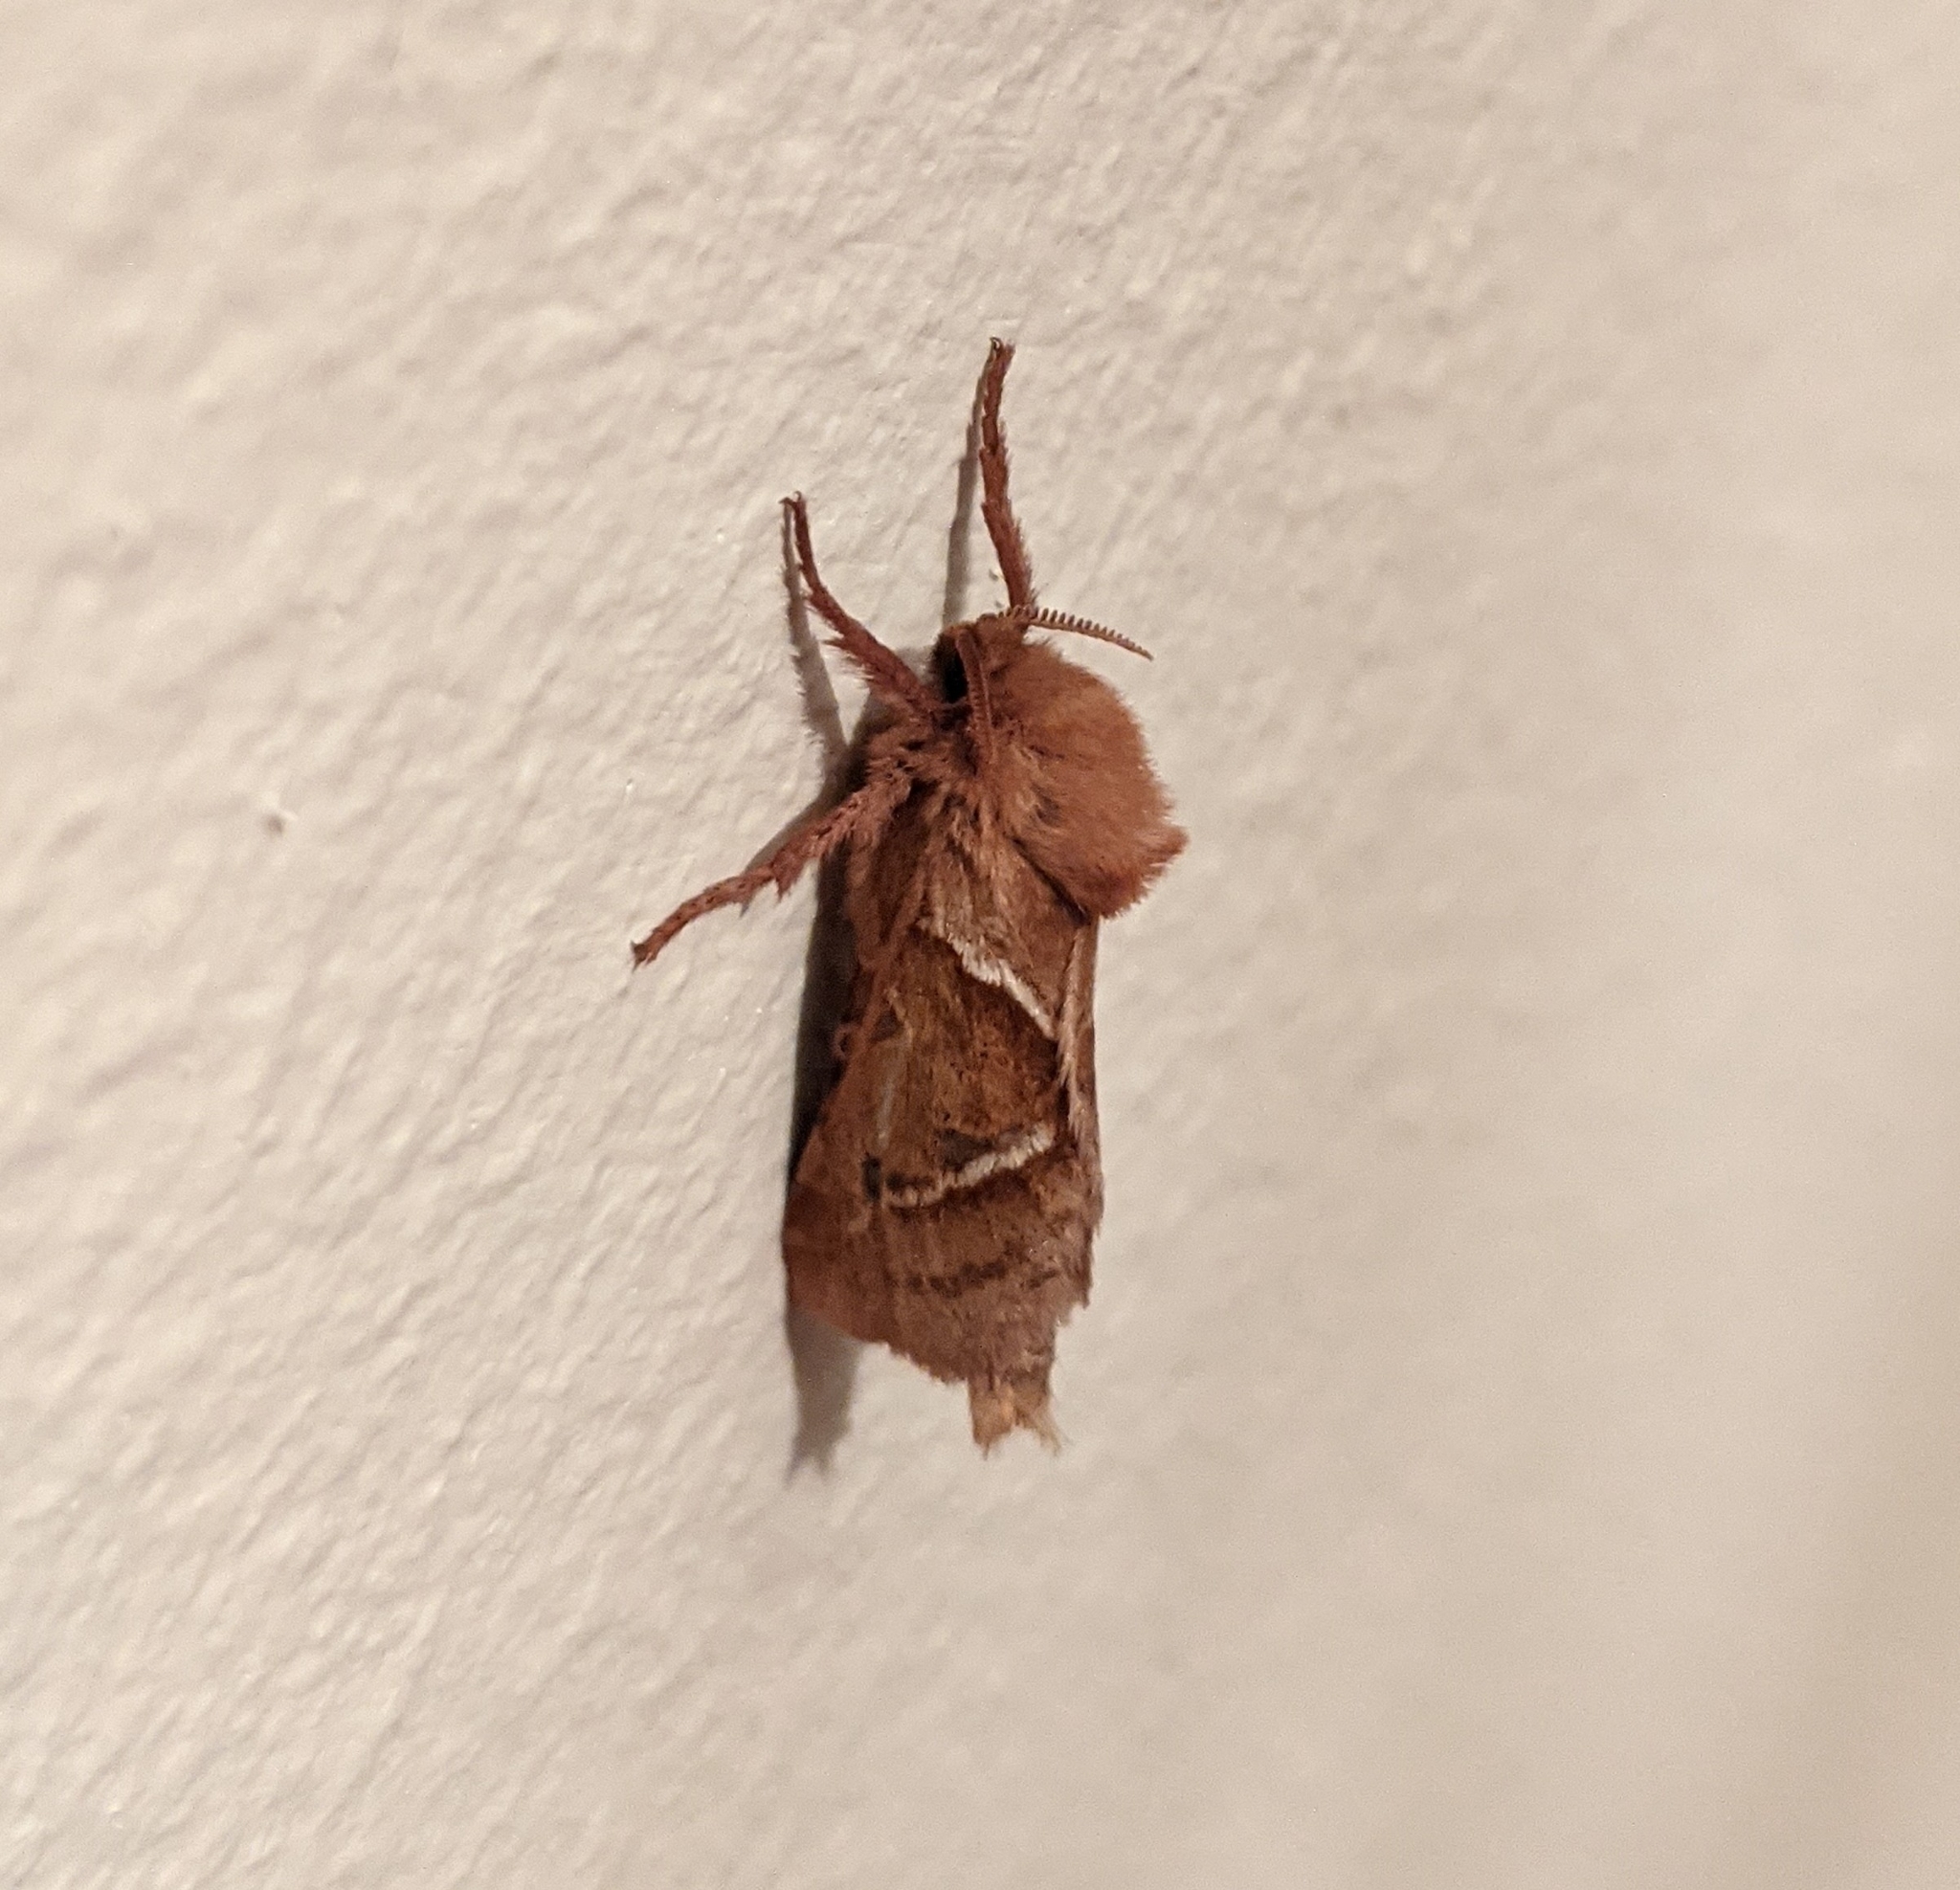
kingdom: Animalia
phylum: Arthropoda
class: Insecta
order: Lepidoptera
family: Hepialidae
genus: Triodia
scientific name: Triodia sylvina
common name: Orange swift
